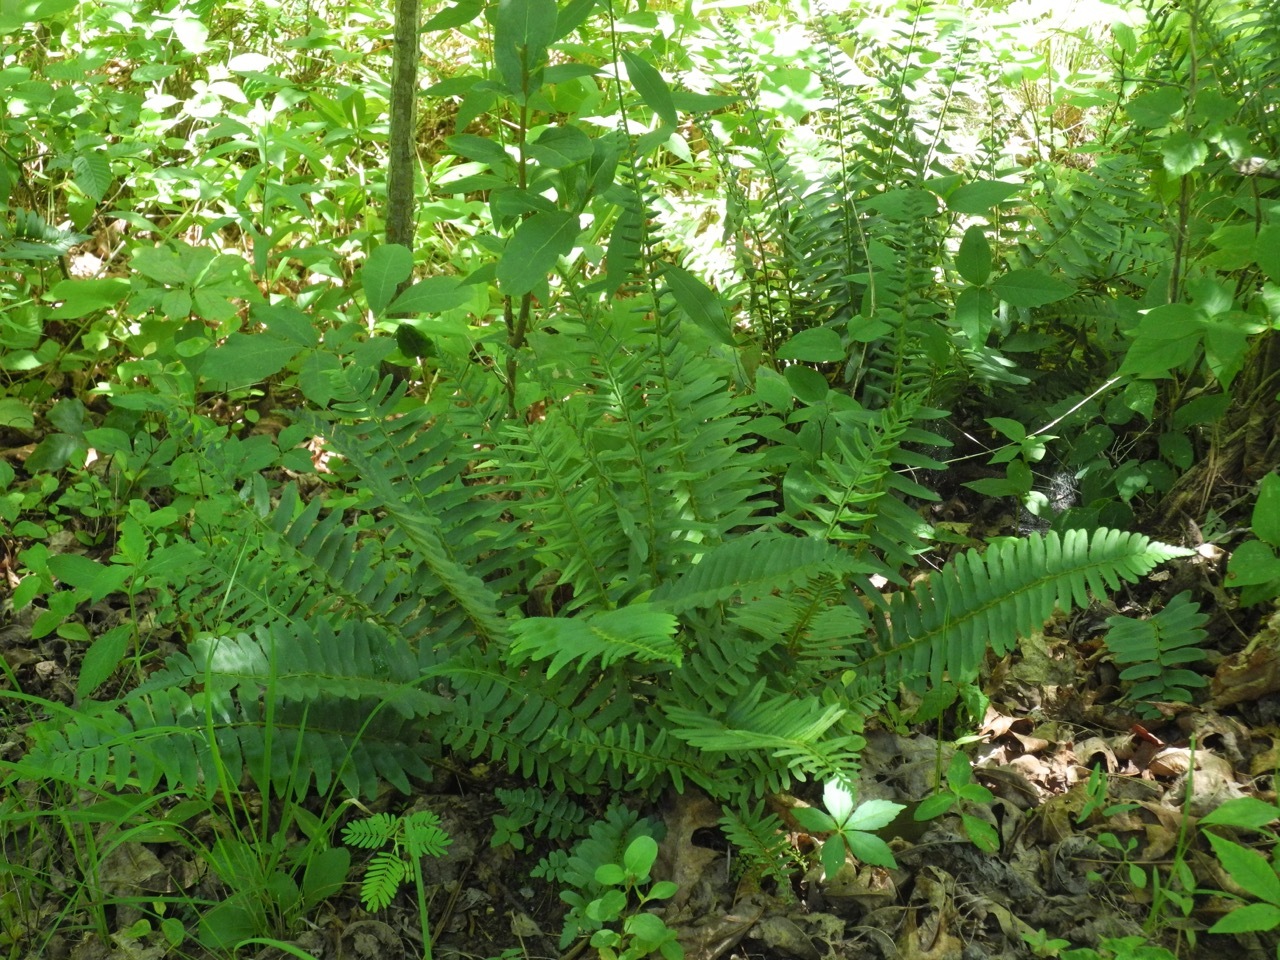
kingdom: Plantae
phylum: Tracheophyta
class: Polypodiopsida
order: Polypodiales
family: Dryopteridaceae
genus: Polystichum
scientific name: Polystichum acrostichoides
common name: Christmas fern
